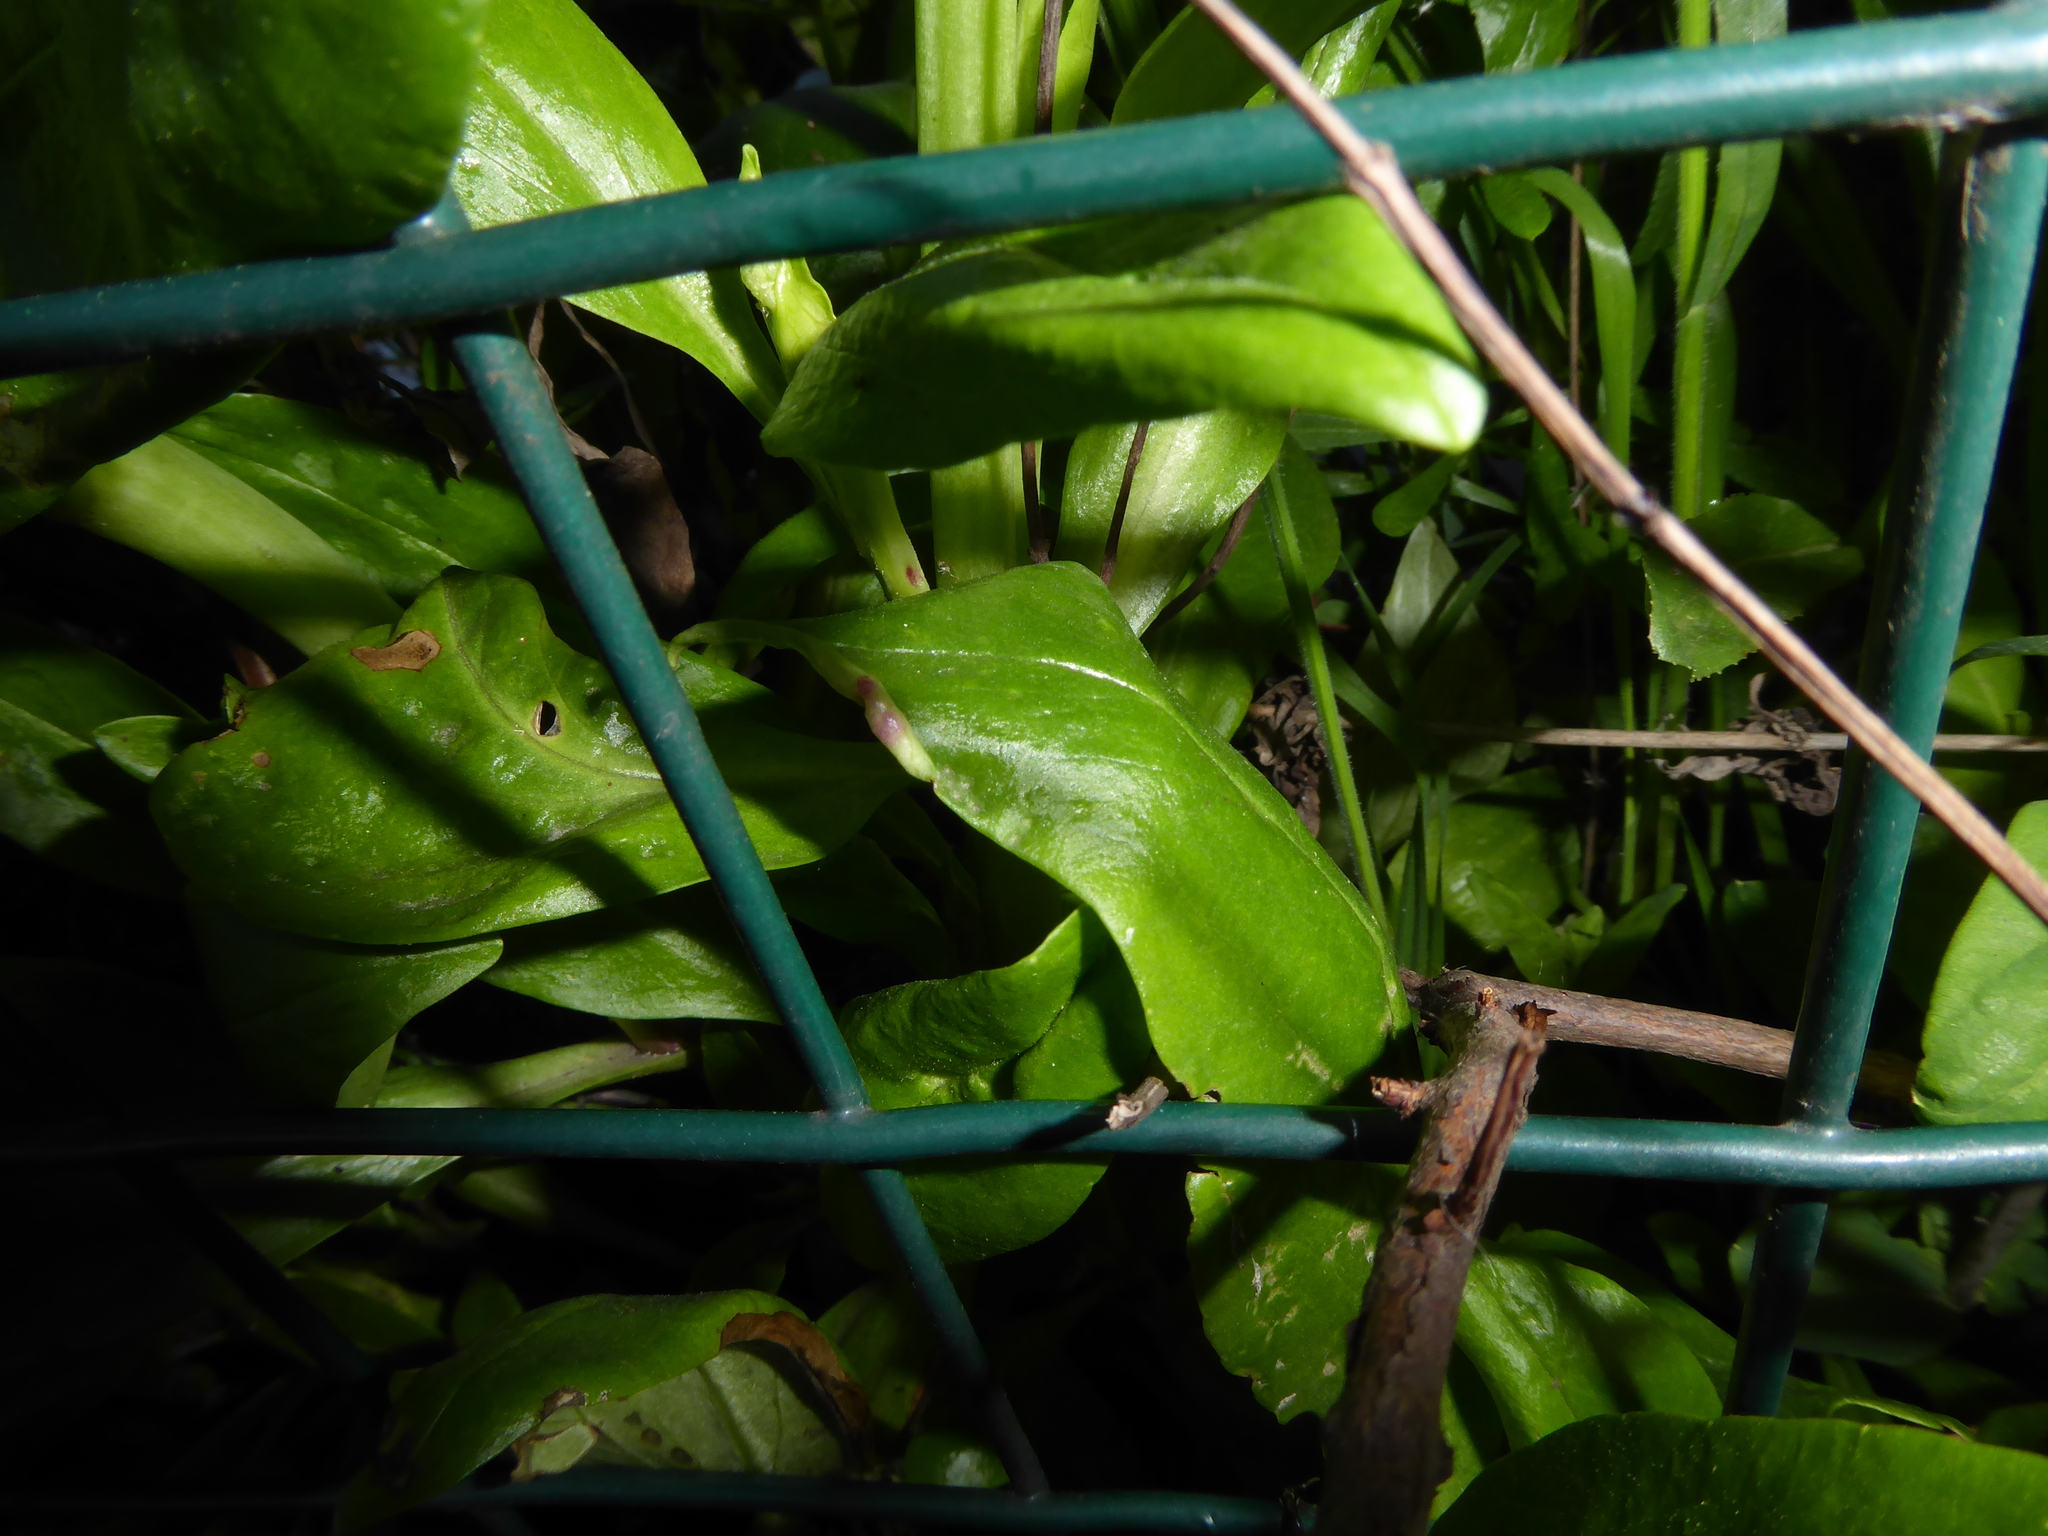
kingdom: Animalia
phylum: Arthropoda
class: Insecta
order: Hemiptera
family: Triozidae
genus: Trioza
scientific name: Trioza centranthi
